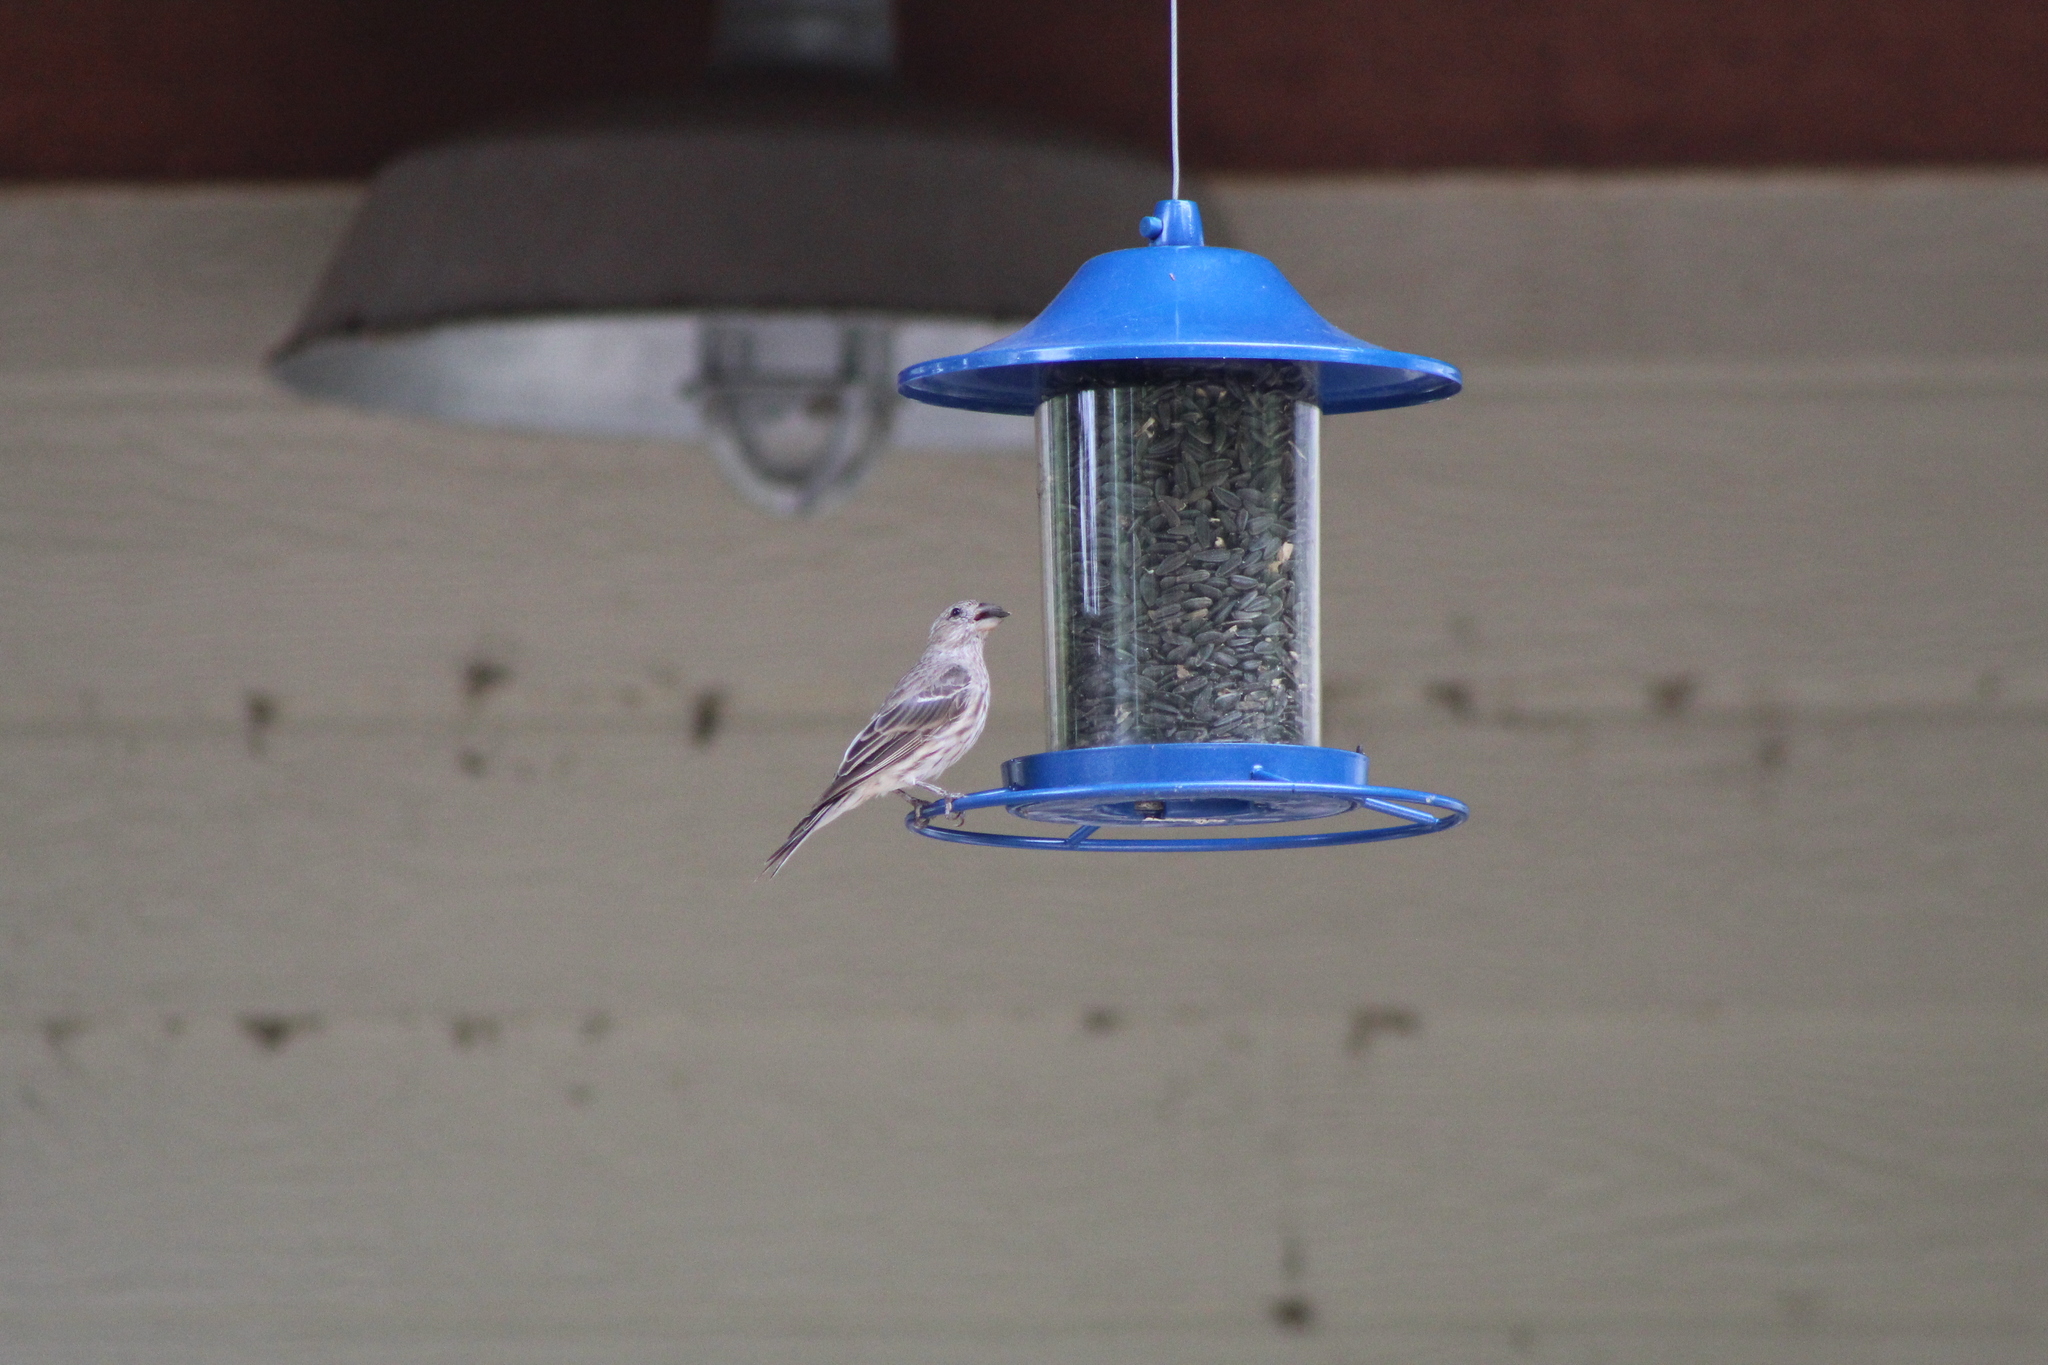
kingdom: Animalia
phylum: Chordata
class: Aves
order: Passeriformes
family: Fringillidae
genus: Haemorhous
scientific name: Haemorhous mexicanus
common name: House finch
